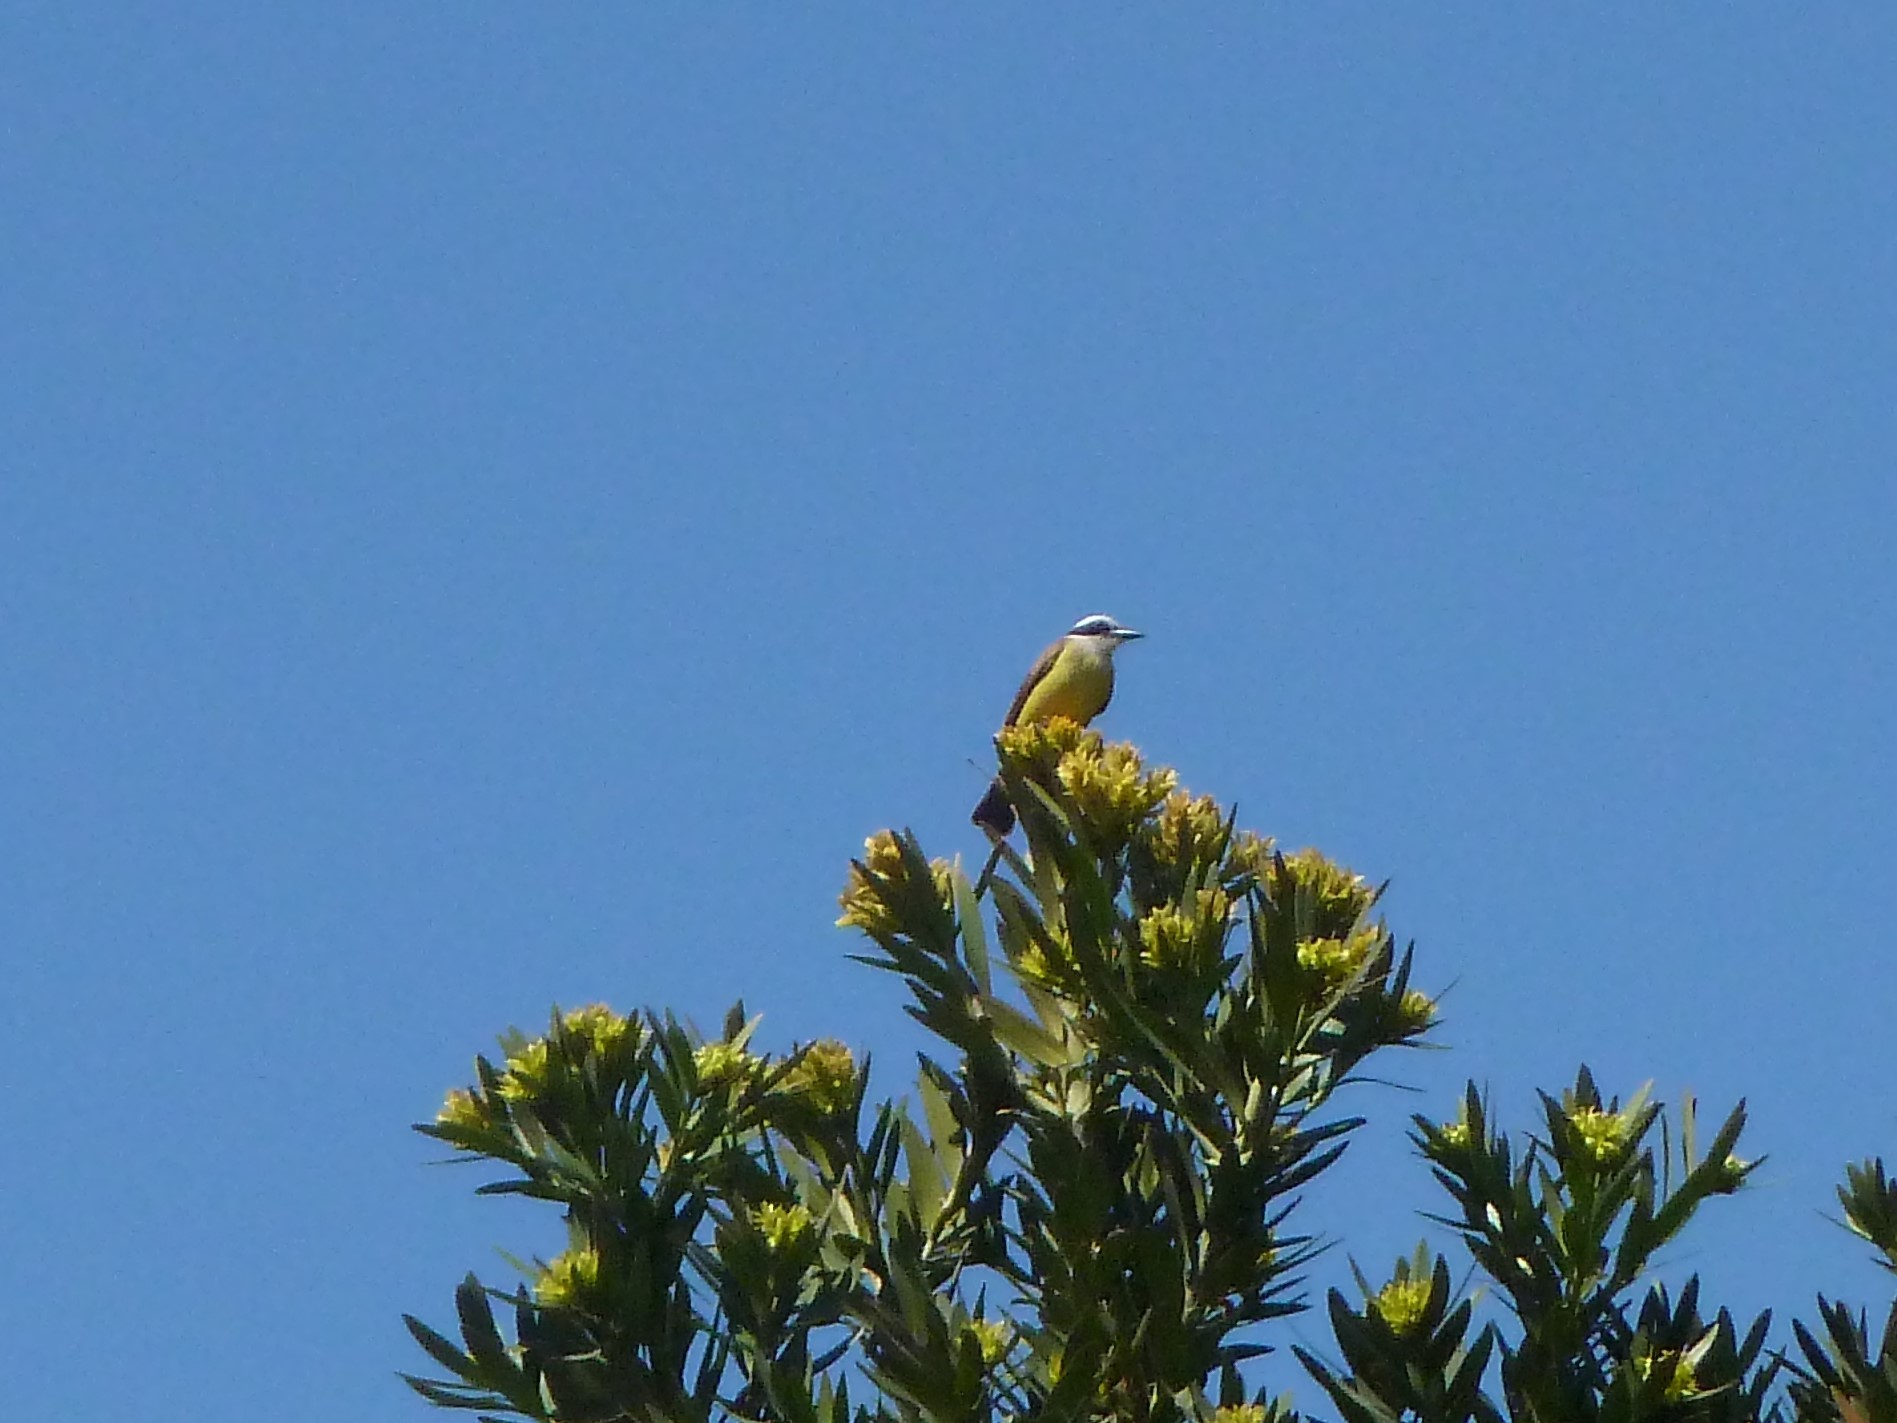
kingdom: Animalia
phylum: Chordata
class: Aves
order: Passeriformes
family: Tyrannidae
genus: Pitangus
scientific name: Pitangus sulphuratus
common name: Great kiskadee
